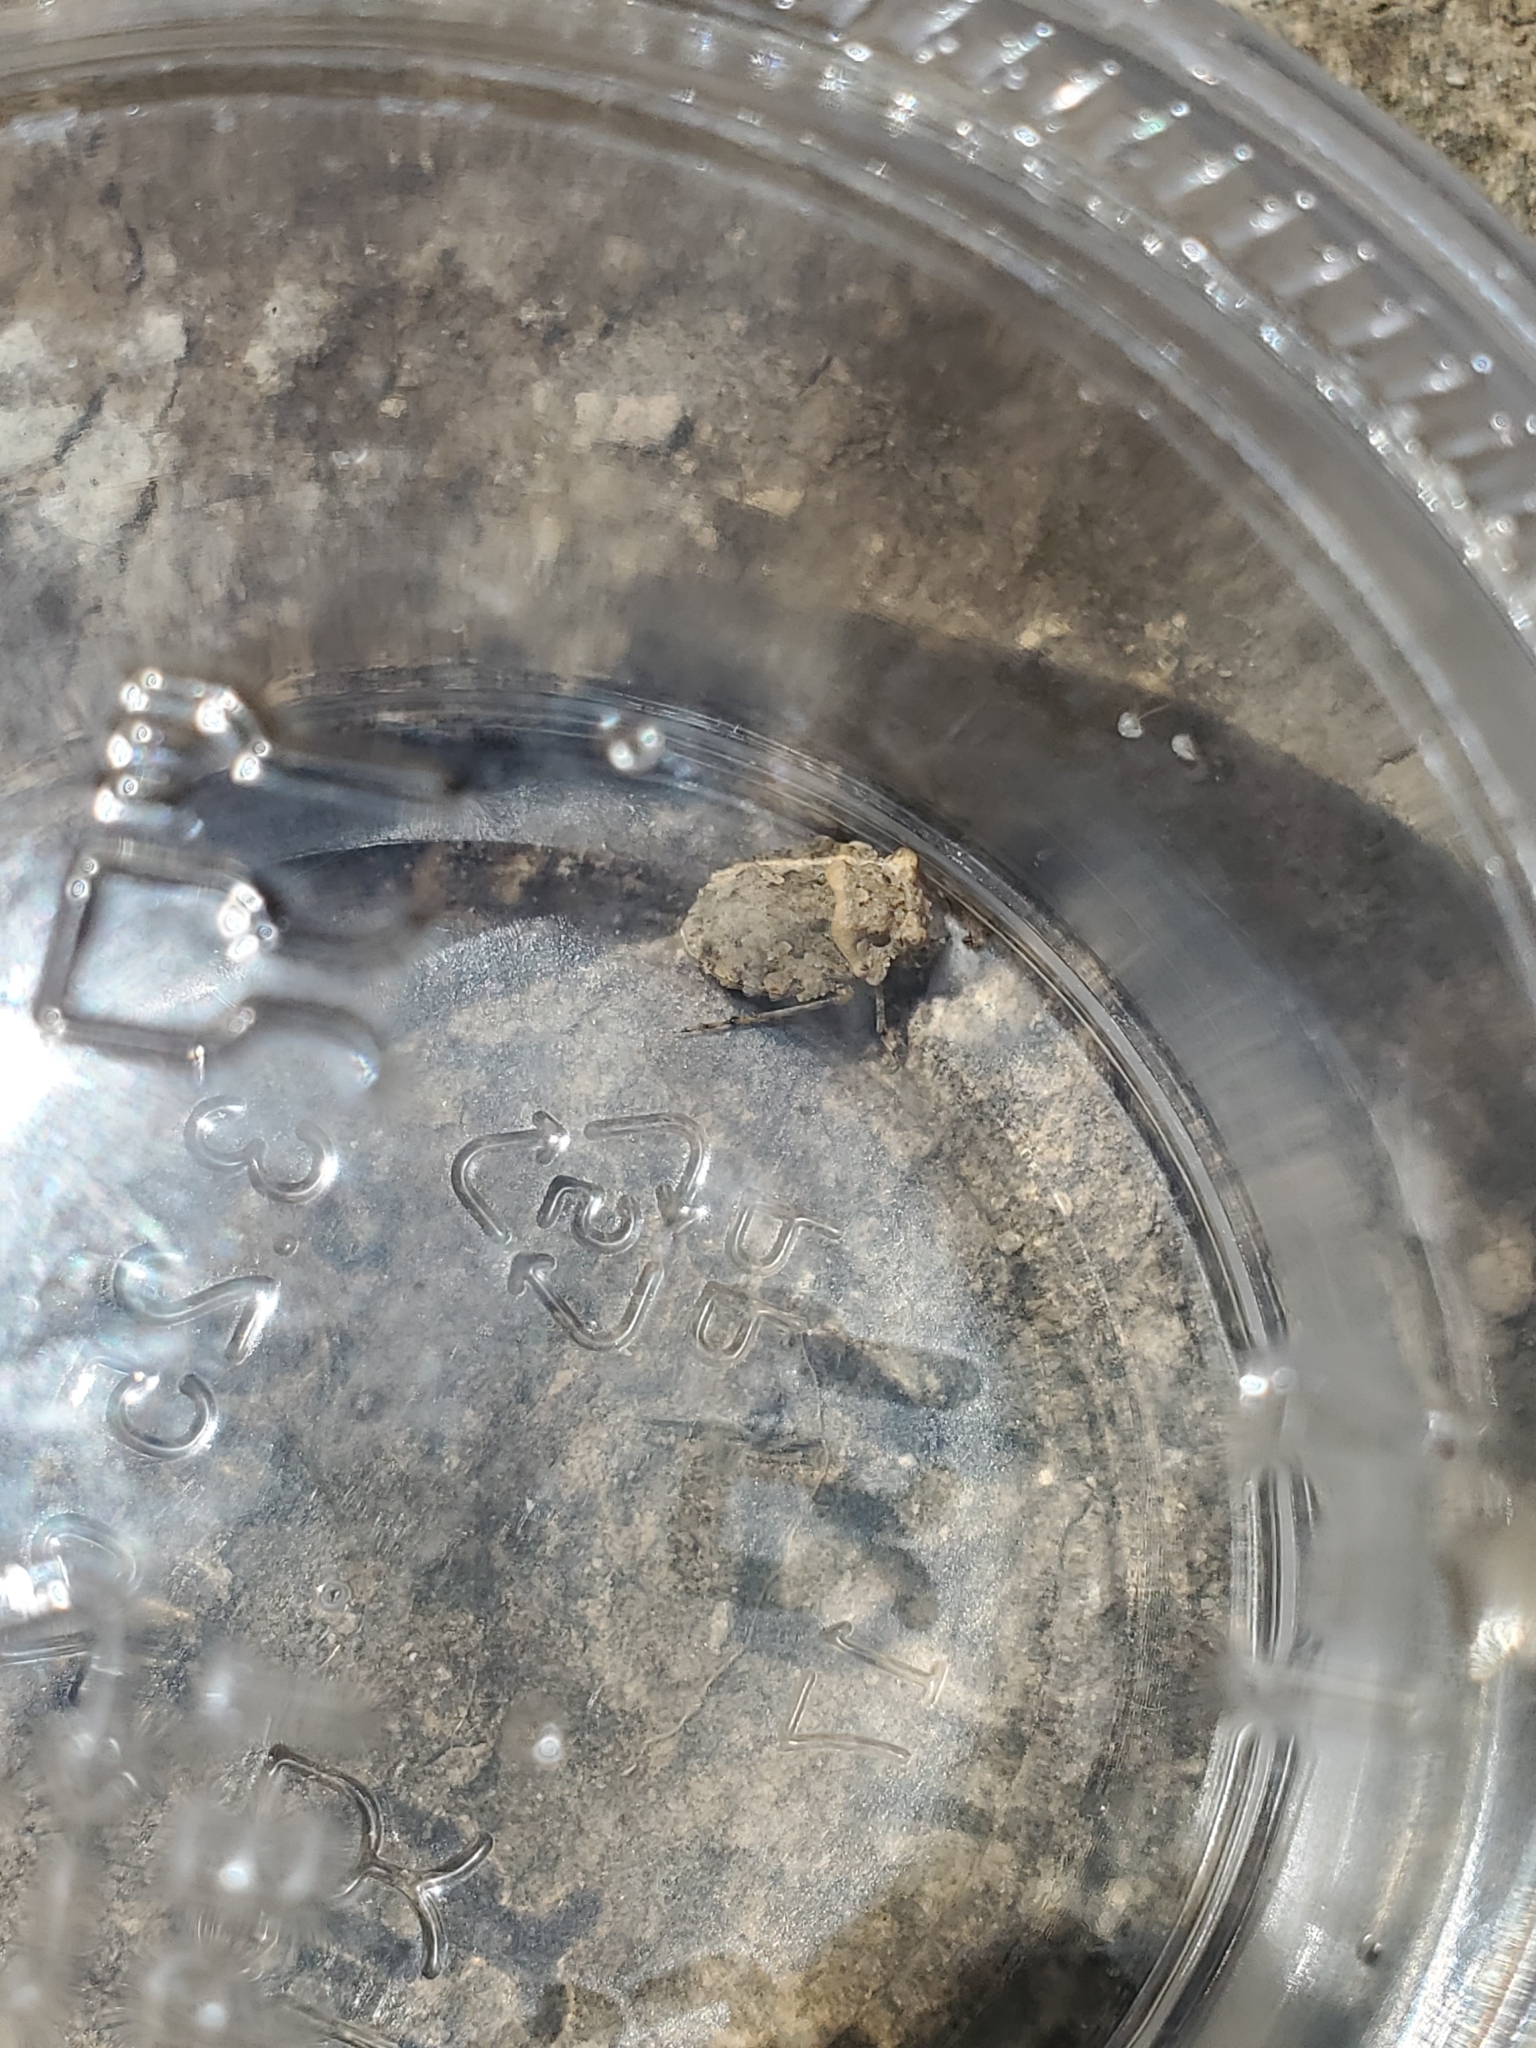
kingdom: Animalia
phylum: Arthropoda
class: Insecta
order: Hemiptera
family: Gelastocoridae
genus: Gelastocoris
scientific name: Gelastocoris oculatus
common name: Toad bug
